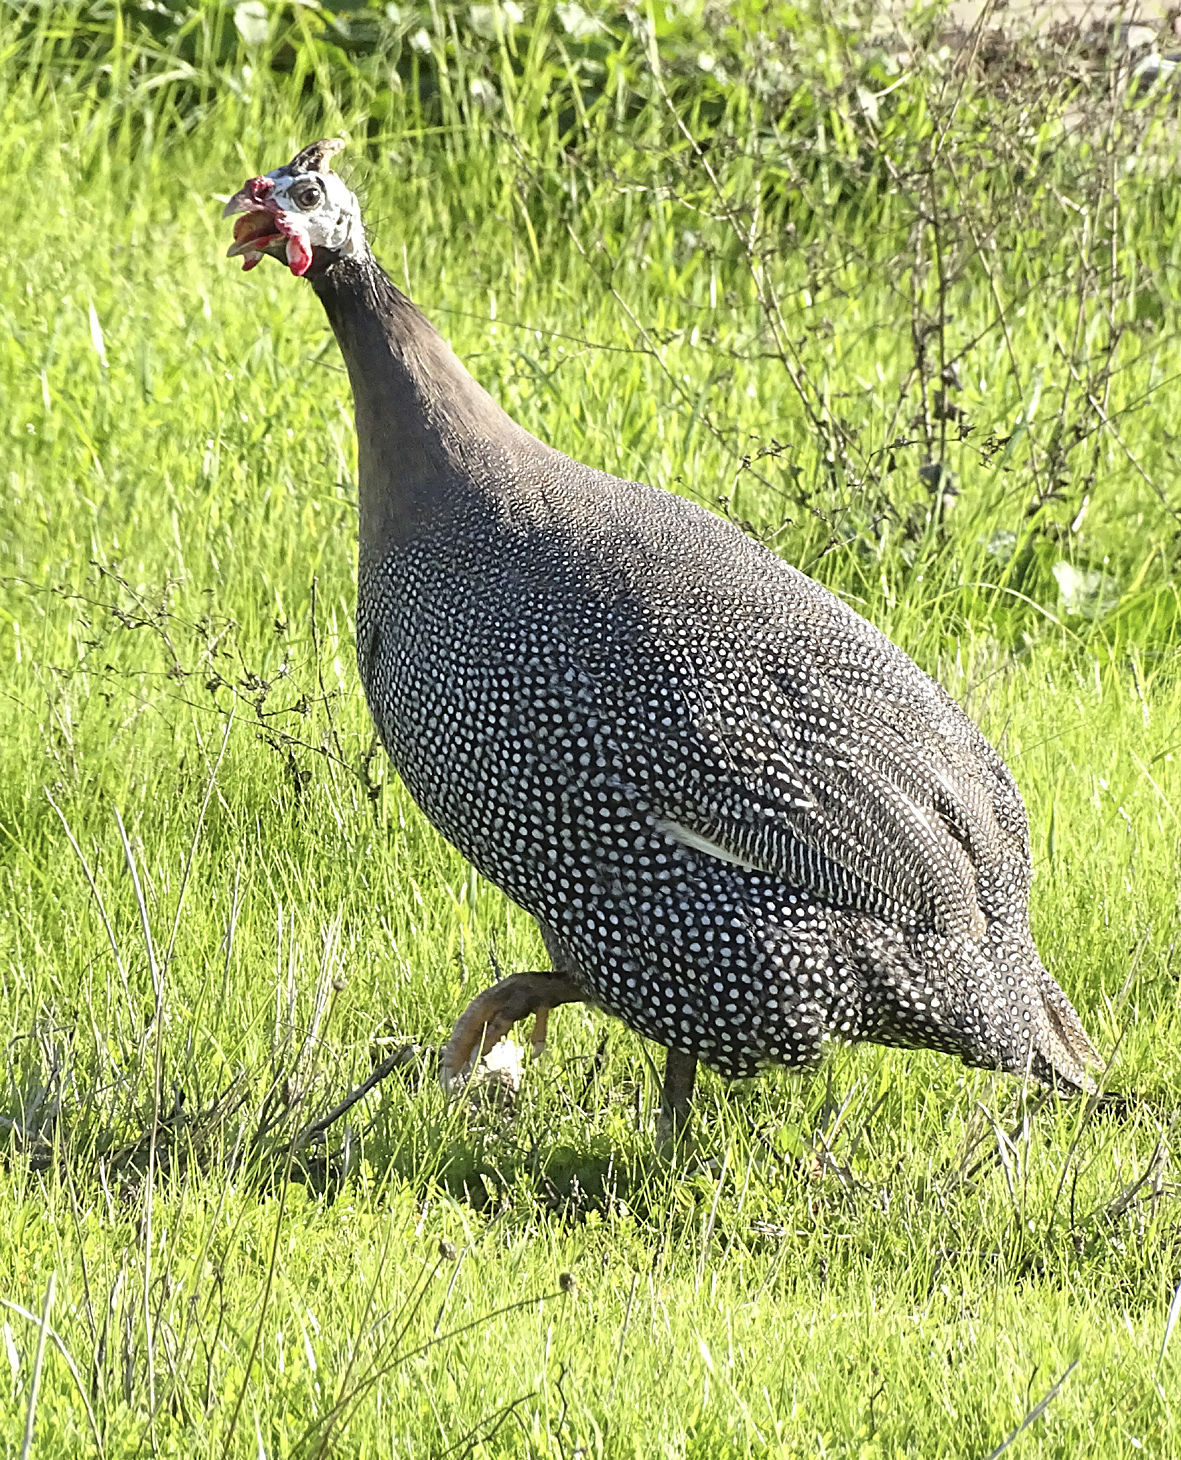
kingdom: Animalia
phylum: Chordata
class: Aves
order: Galliformes
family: Numididae
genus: Numida
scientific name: Numida meleagris
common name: Helmeted guineafowl
